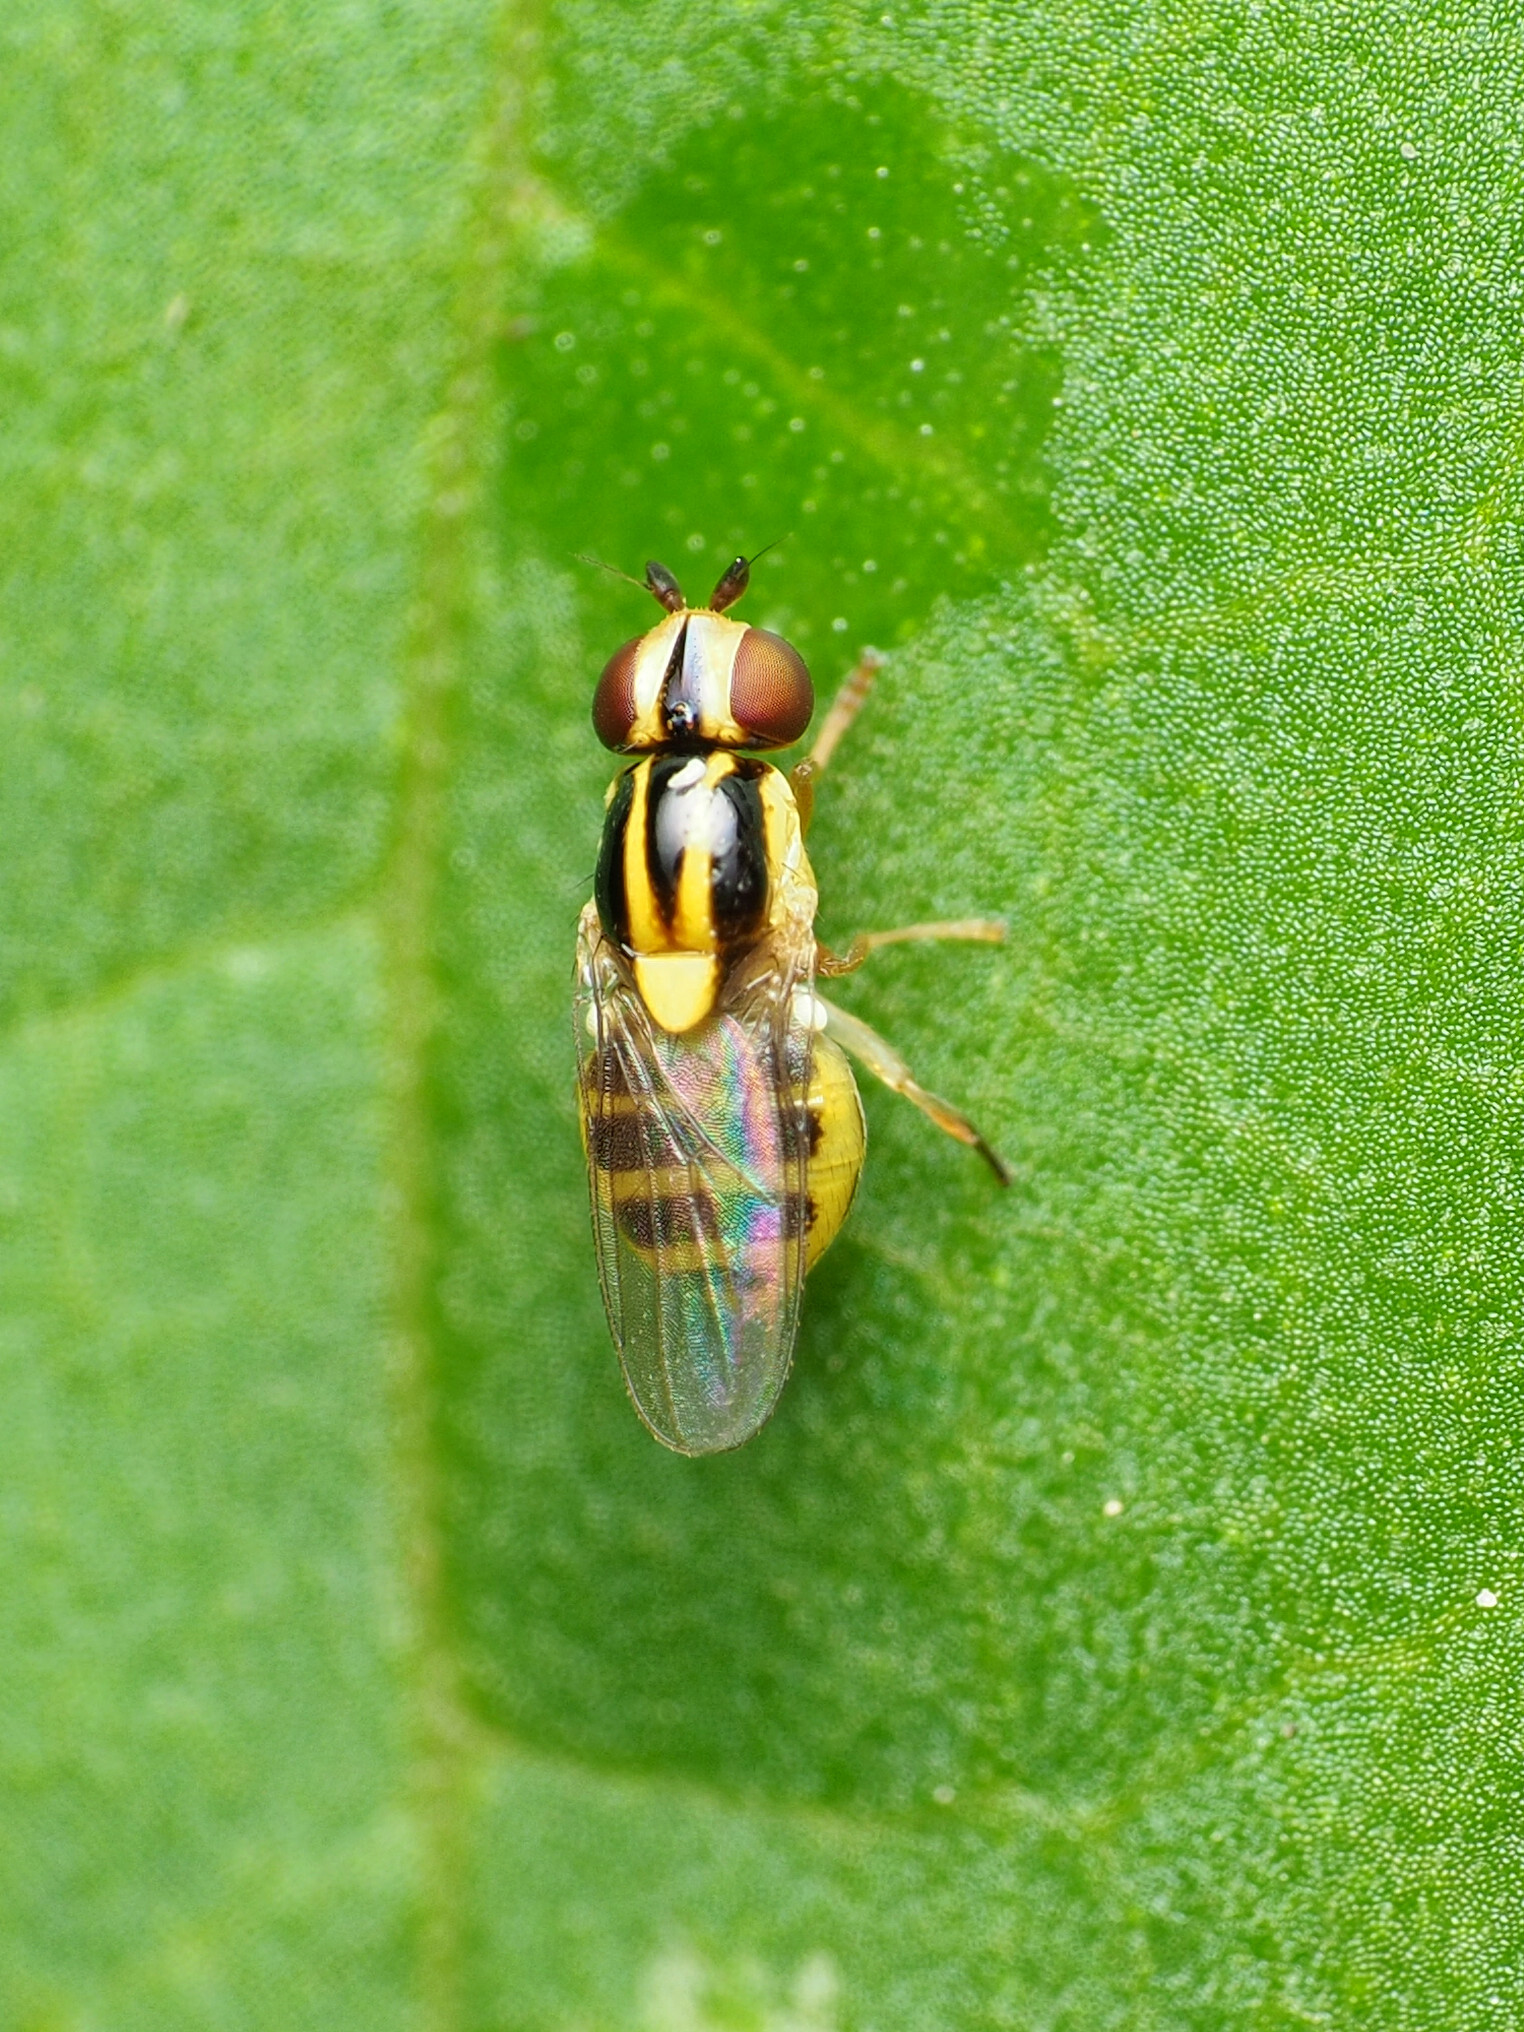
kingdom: Animalia
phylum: Arthropoda
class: Insecta
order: Diptera
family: Chloropidae
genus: Thaumatomyia
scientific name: Thaumatomyia glabra
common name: Chloropid fly
